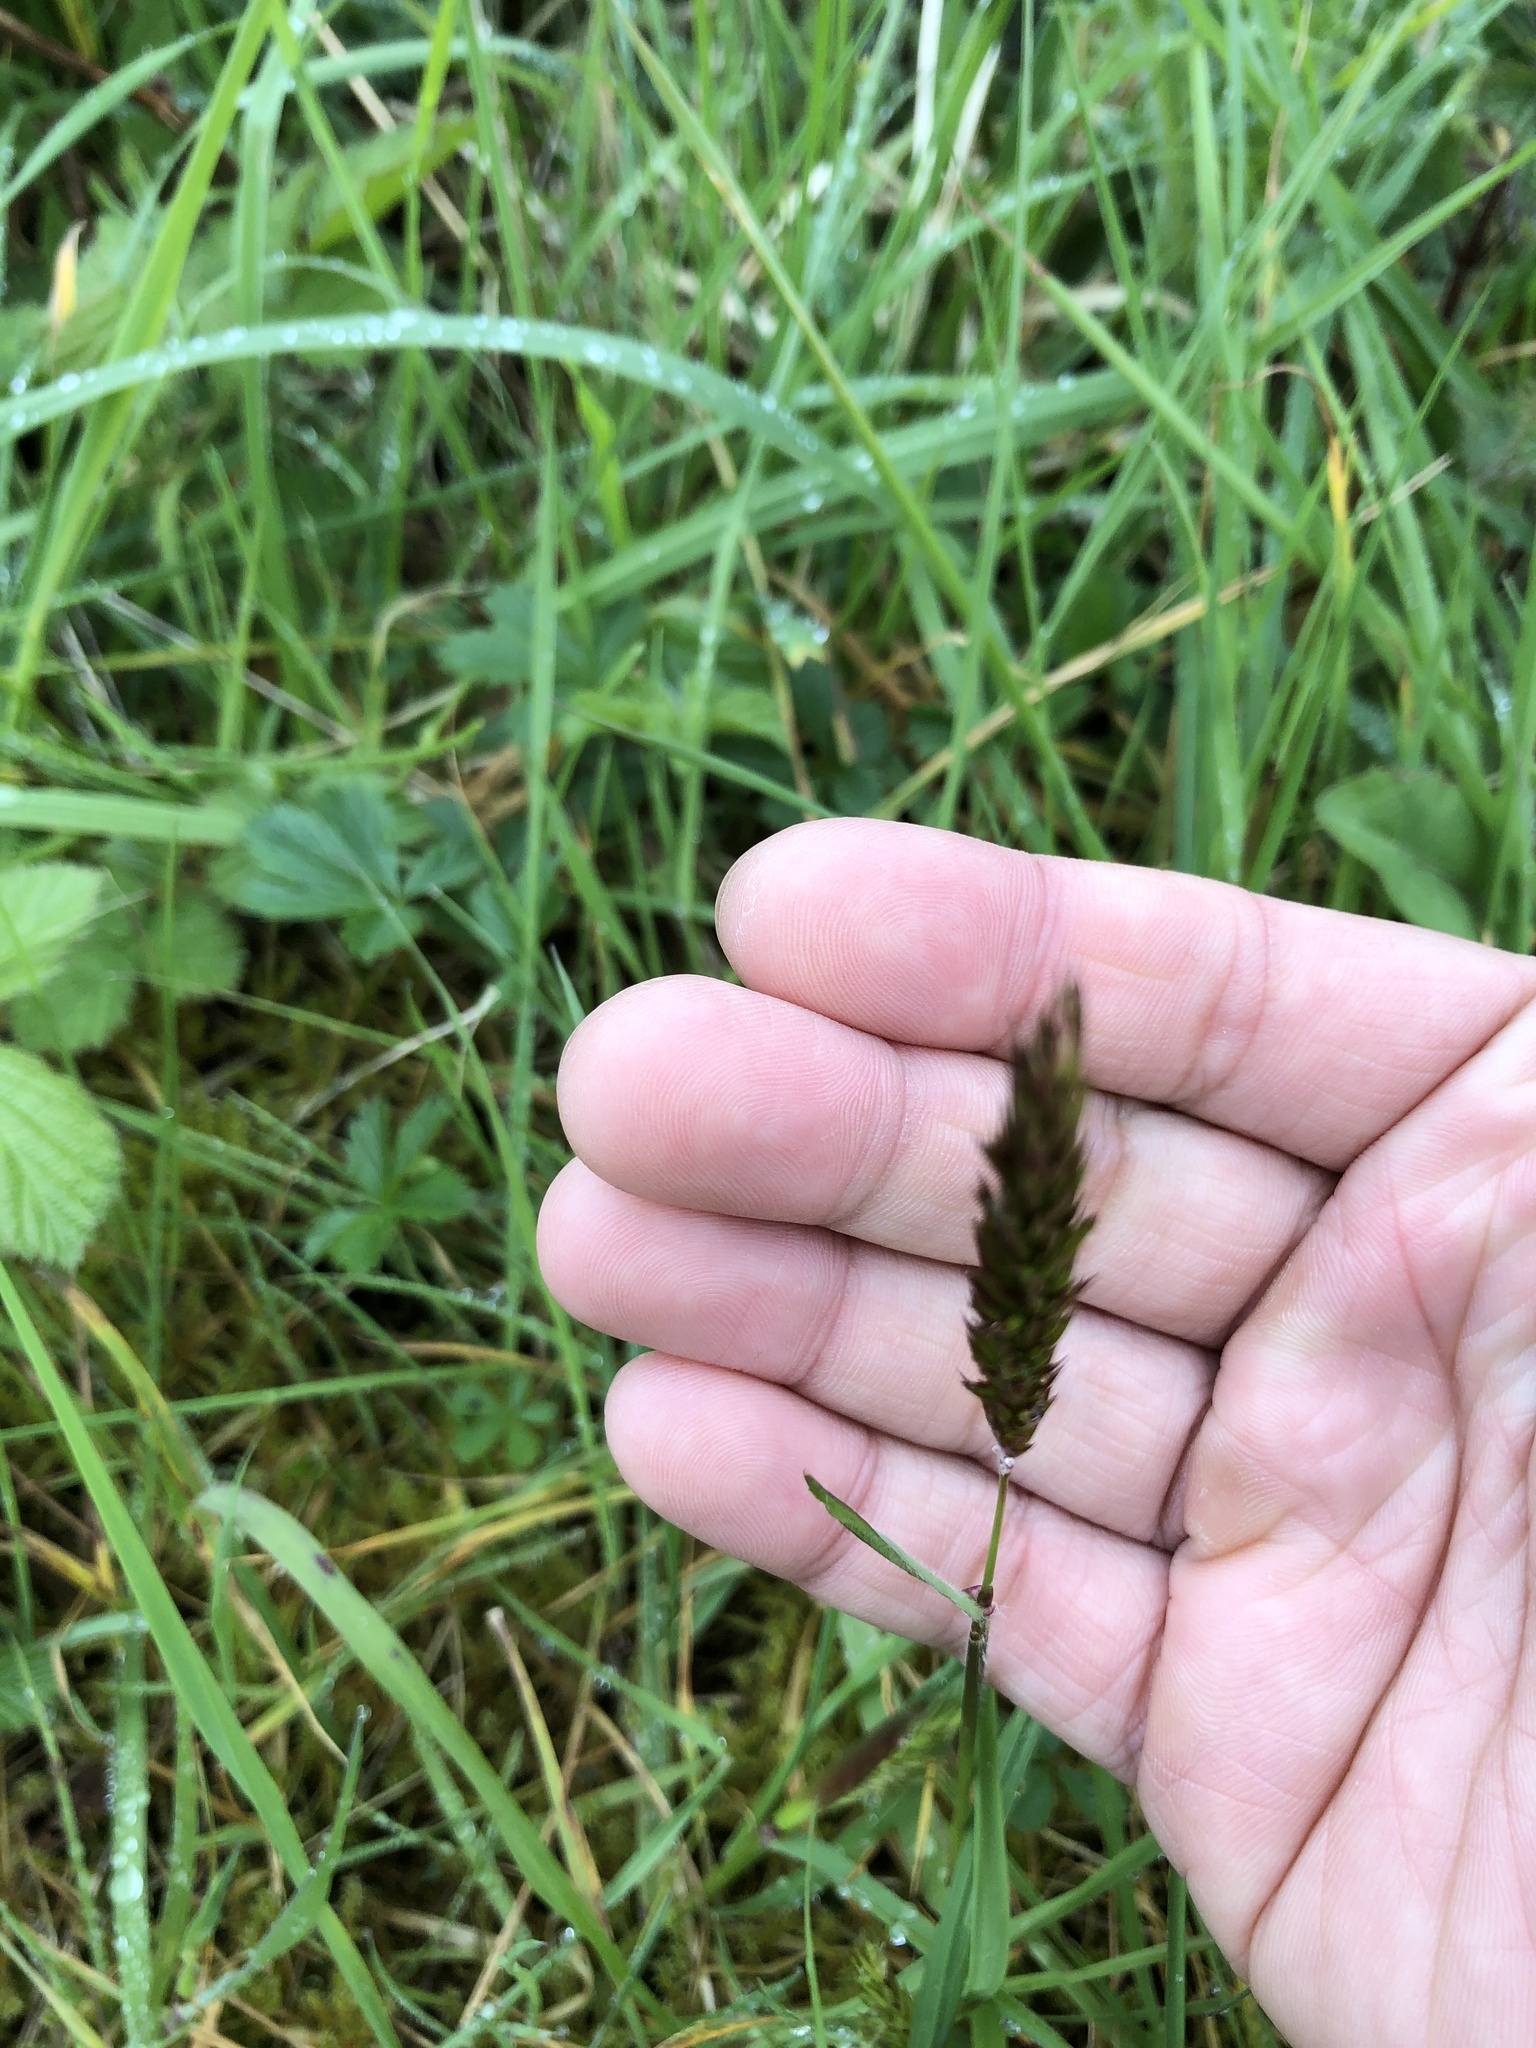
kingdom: Plantae
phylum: Tracheophyta
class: Liliopsida
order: Poales
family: Poaceae
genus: Anthoxanthum
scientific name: Anthoxanthum odoratum
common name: Sweet vernalgrass
